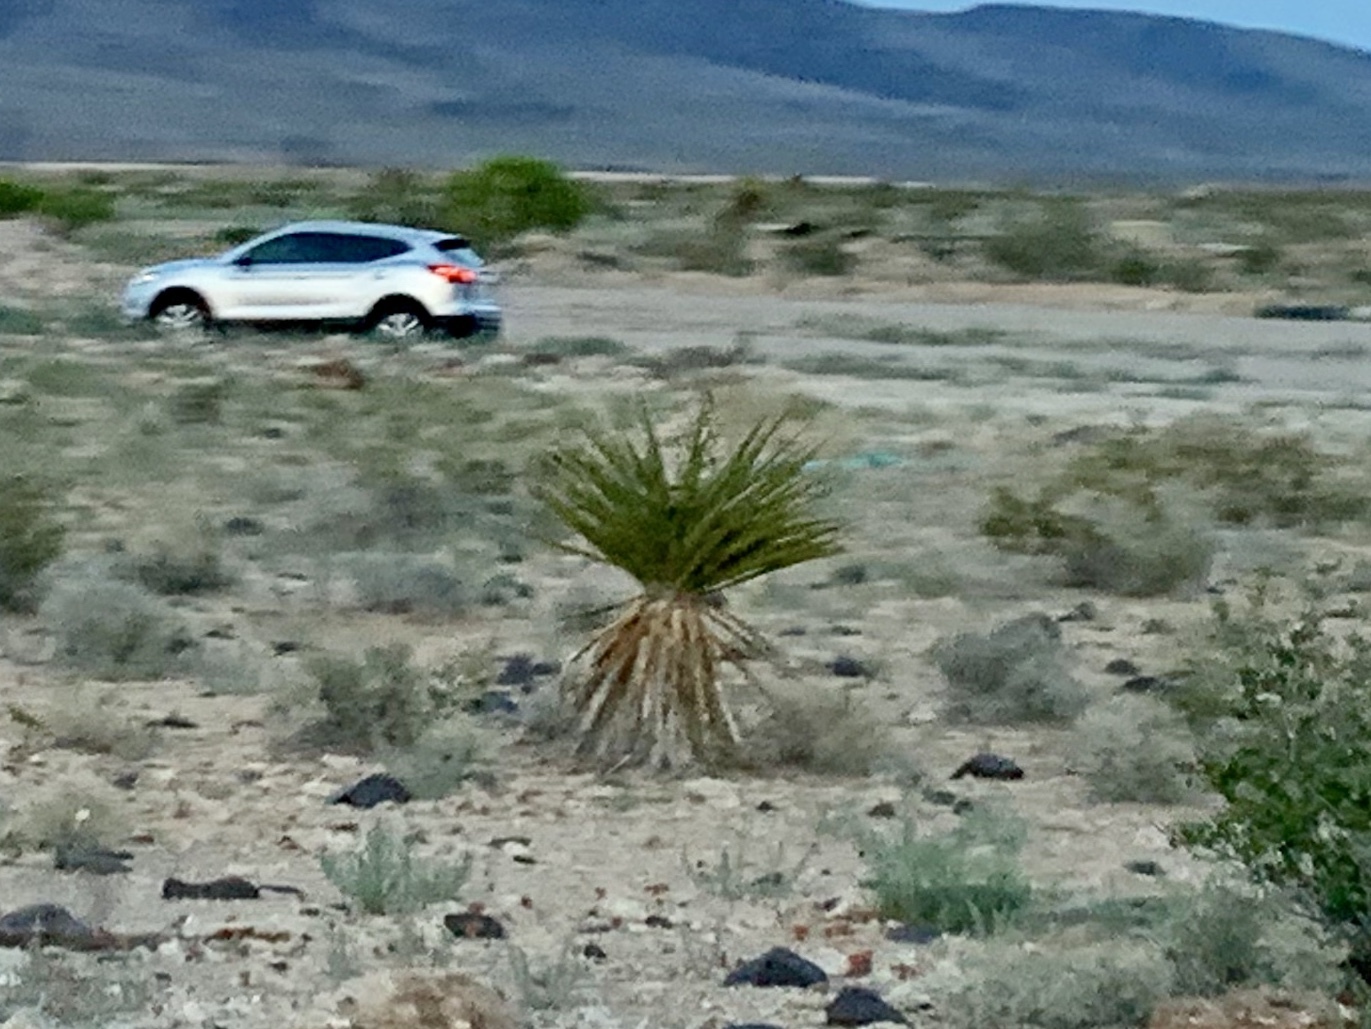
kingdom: Plantae
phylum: Tracheophyta
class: Liliopsida
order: Asparagales
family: Asparagaceae
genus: Yucca
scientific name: Yucca schidigera
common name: Mojave yucca
